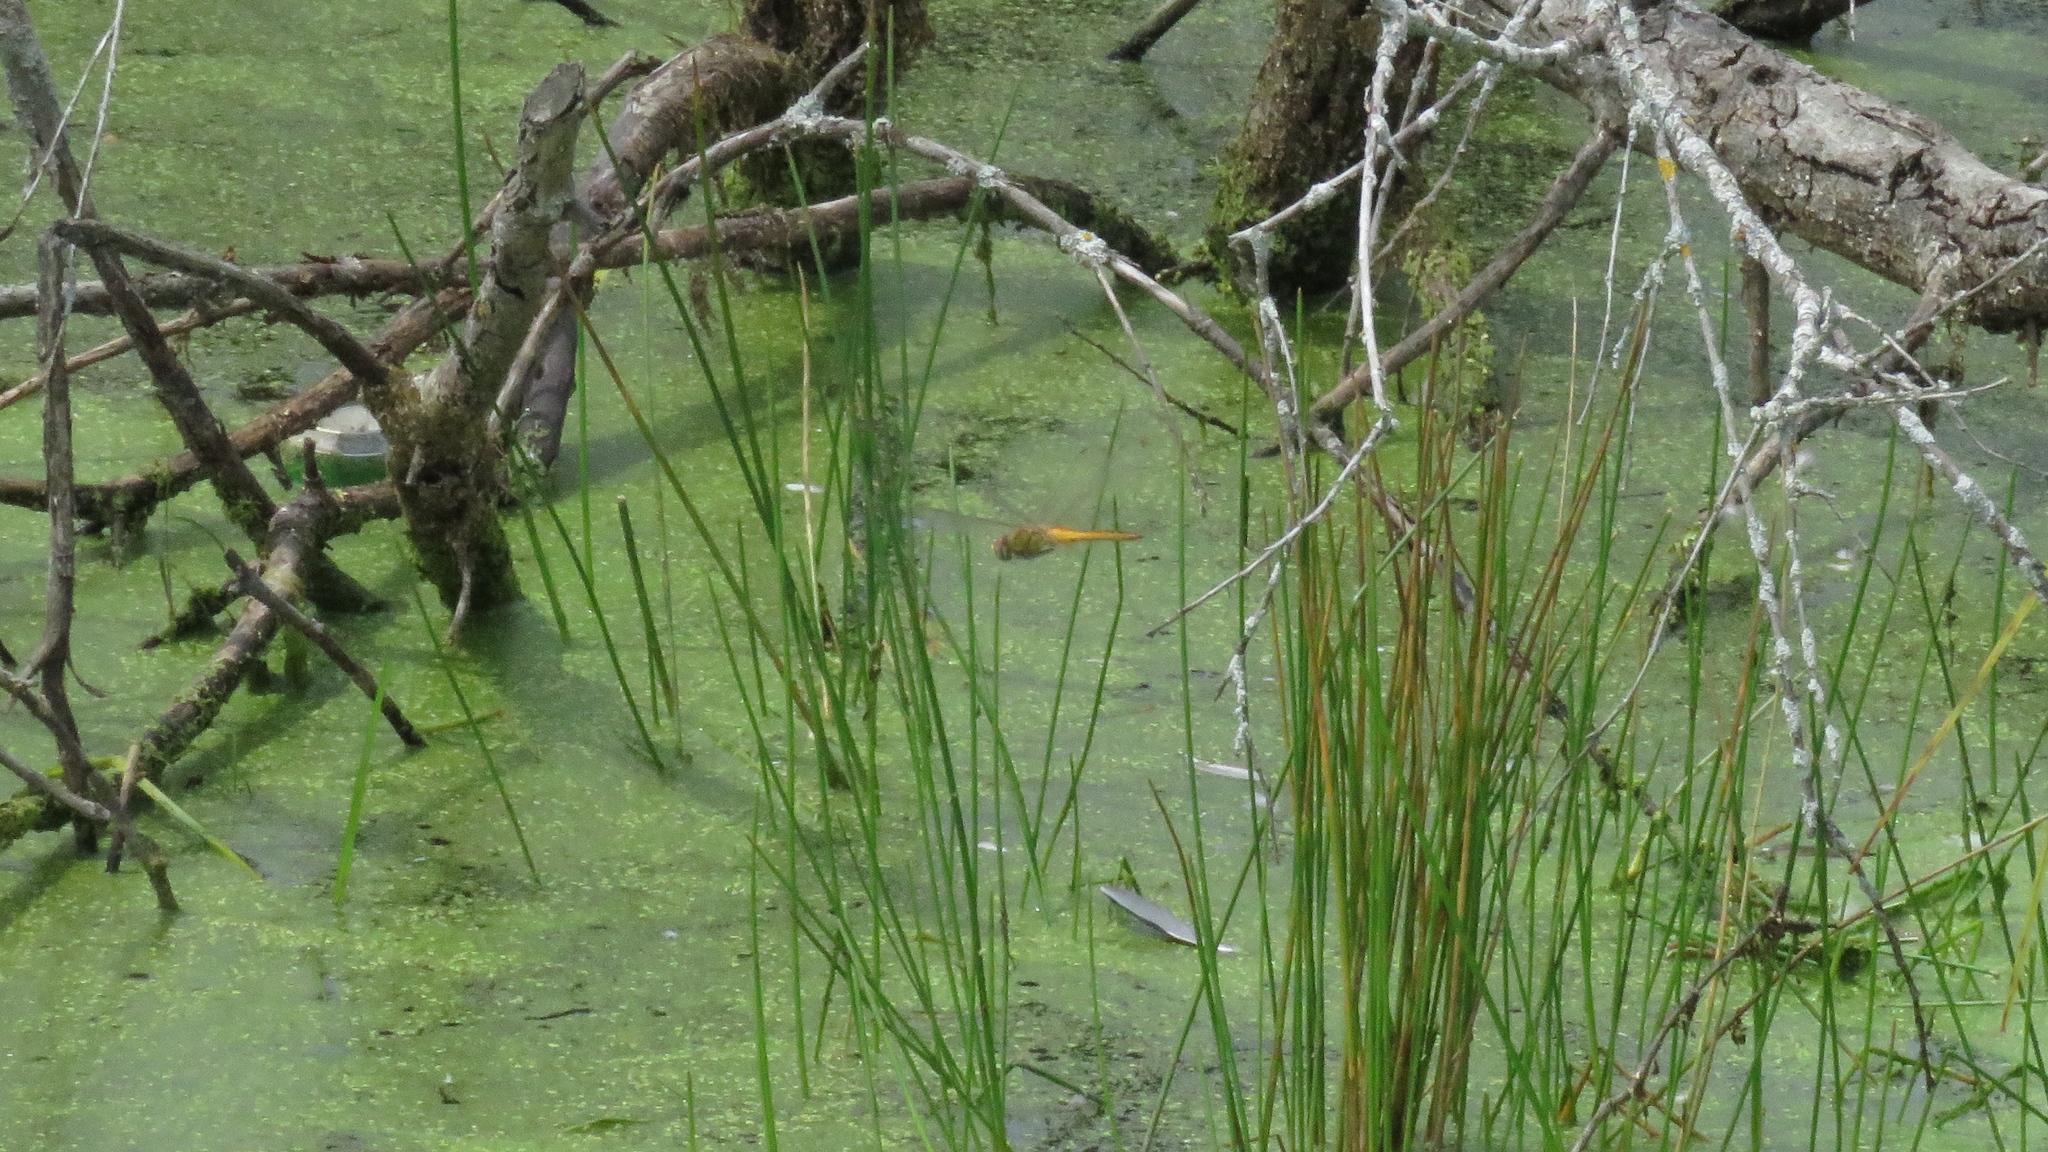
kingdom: Animalia
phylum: Arthropoda
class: Insecta
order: Odonata
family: Libellulidae
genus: Pantala
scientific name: Pantala flavescens
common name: Wandering glider
